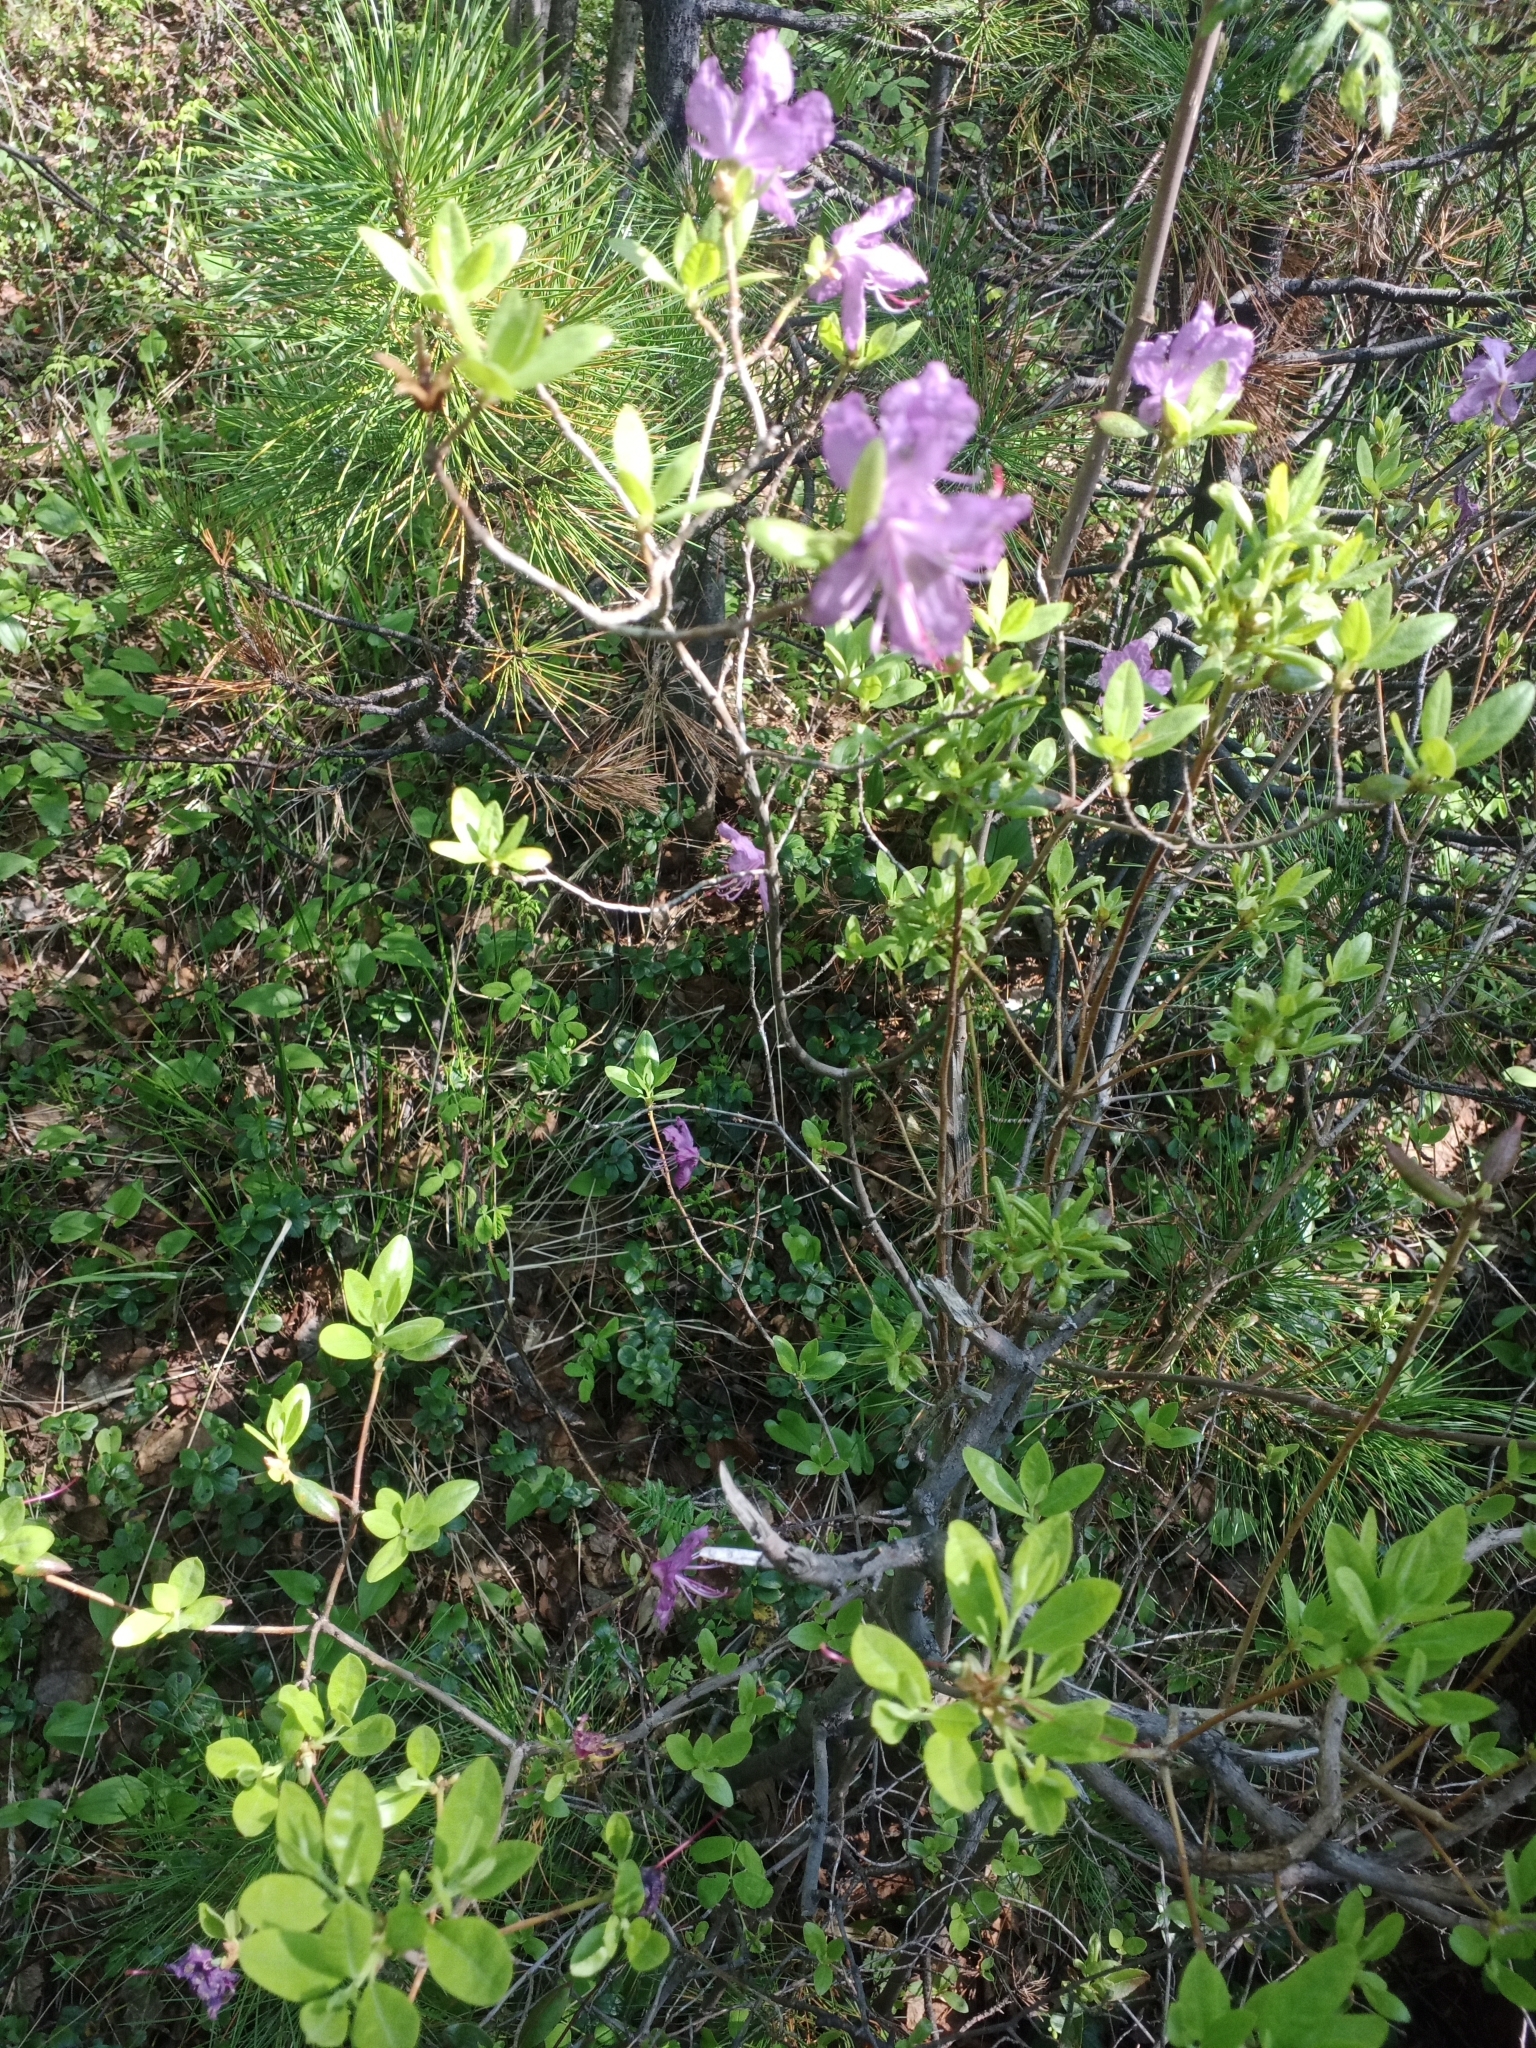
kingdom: Plantae
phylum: Tracheophyta
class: Magnoliopsida
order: Ericales
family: Ericaceae
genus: Rhododendron
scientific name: Rhododendron dauricum
